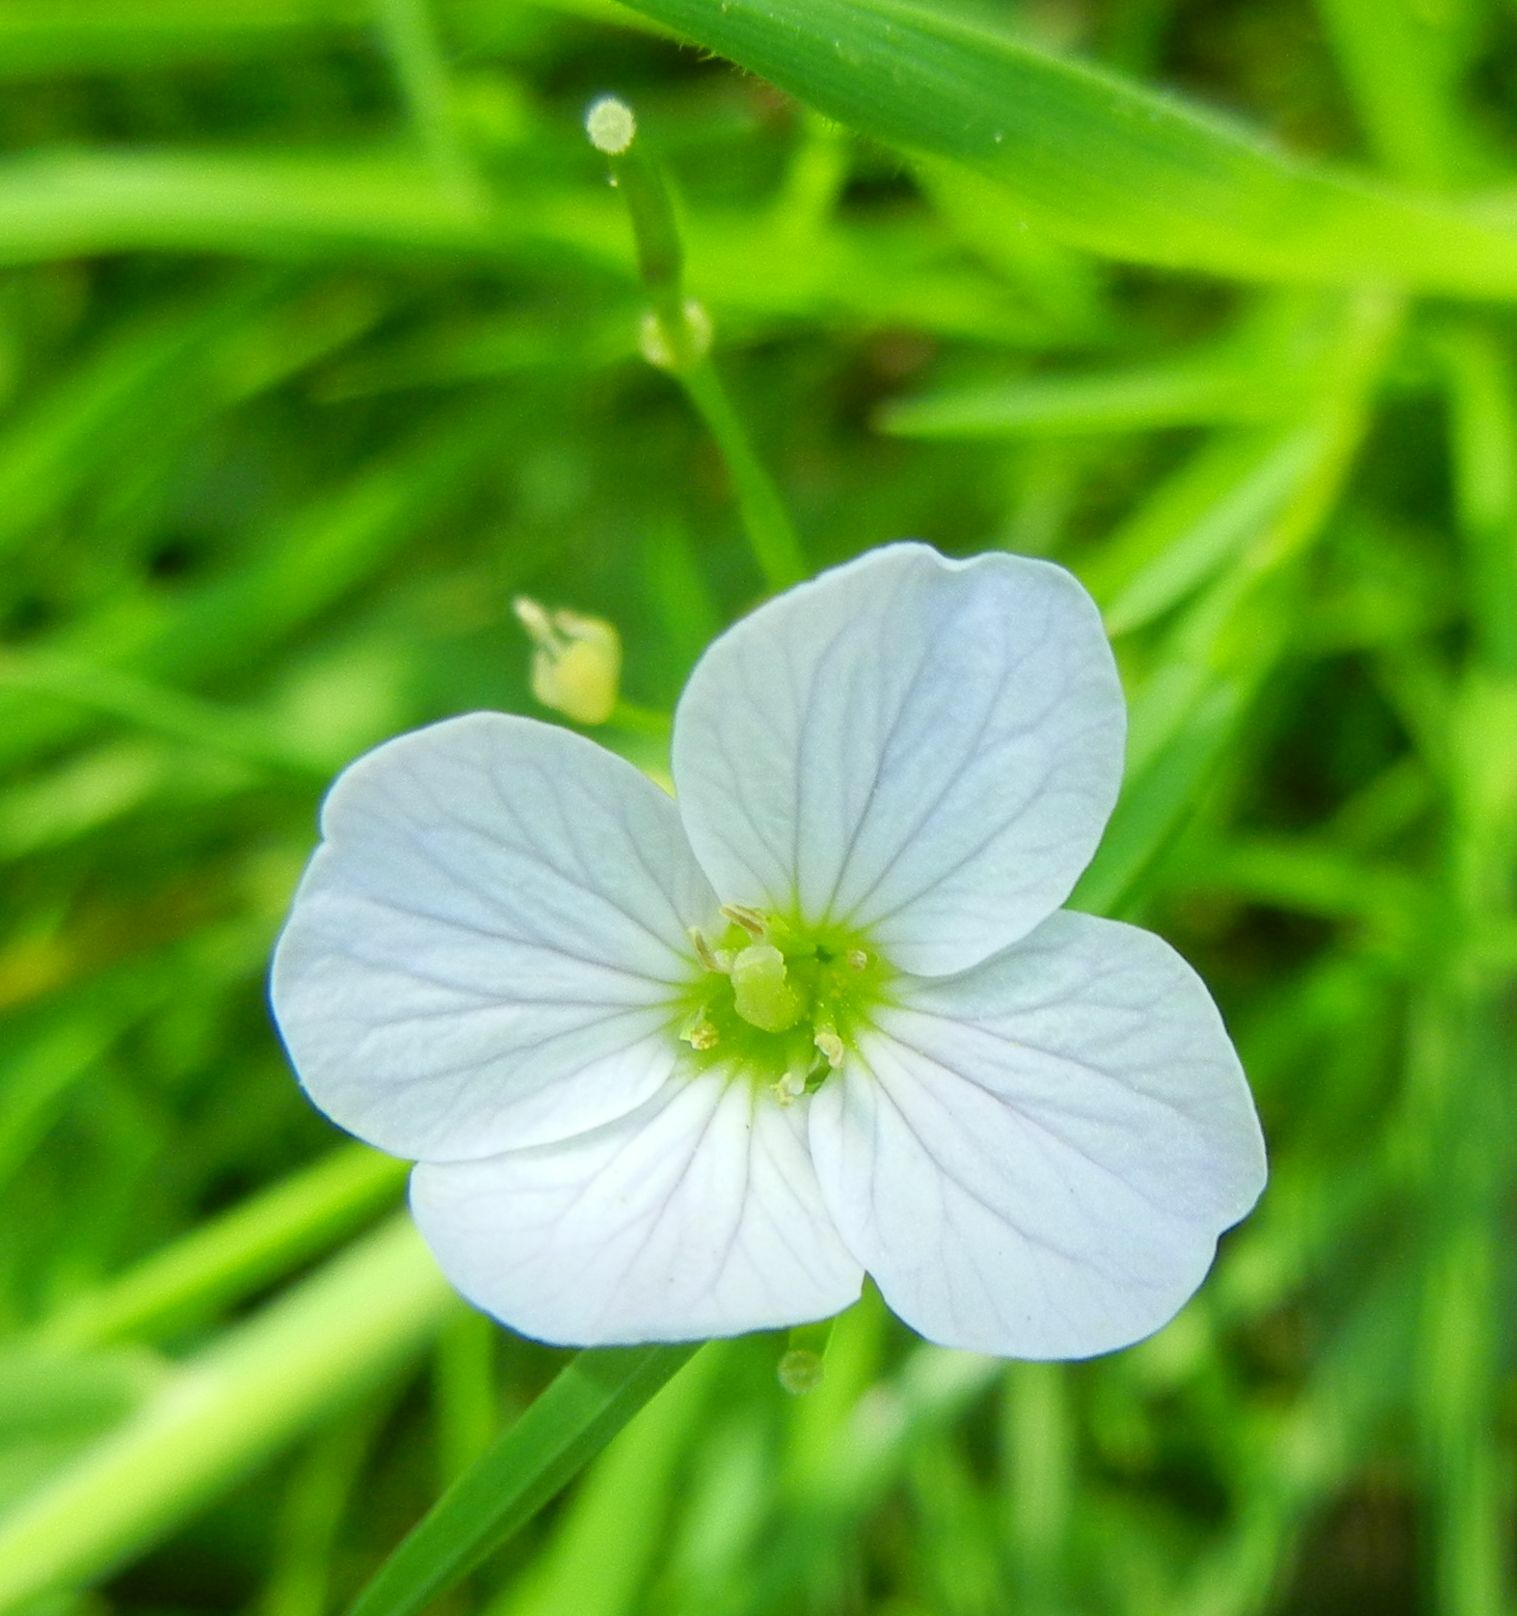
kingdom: Plantae
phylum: Tracheophyta
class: Magnoliopsida
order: Brassicales
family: Brassicaceae
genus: Cardamine
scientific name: Cardamine pratensis
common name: Cuckoo flower
